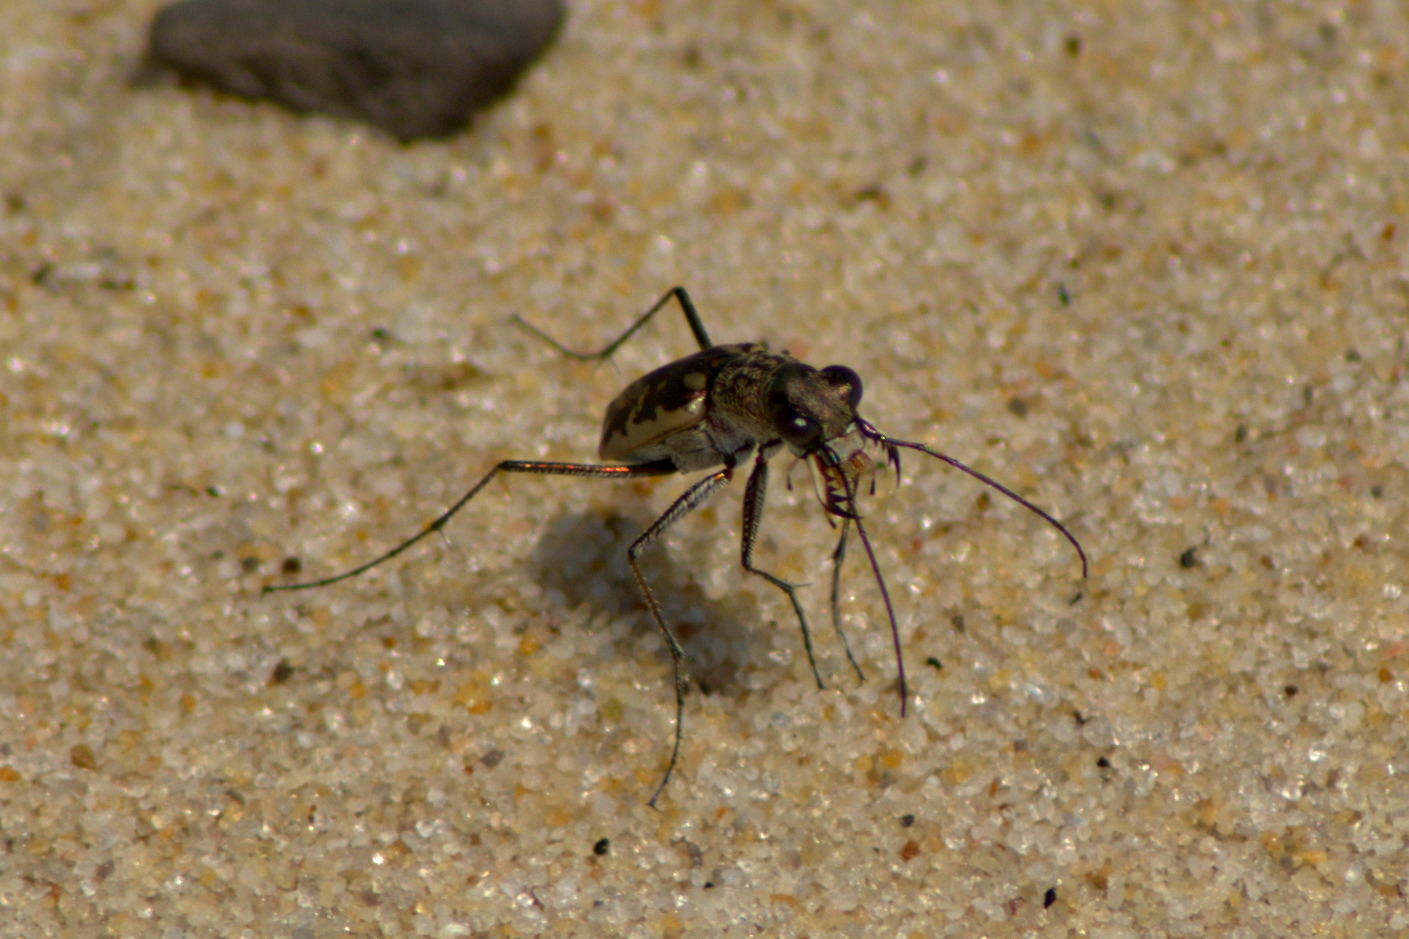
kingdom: Animalia
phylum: Arthropoda
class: Insecta
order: Coleoptera
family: Carabidae
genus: Ellipsoptera
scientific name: Ellipsoptera marginata
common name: Margined tiger beetle
